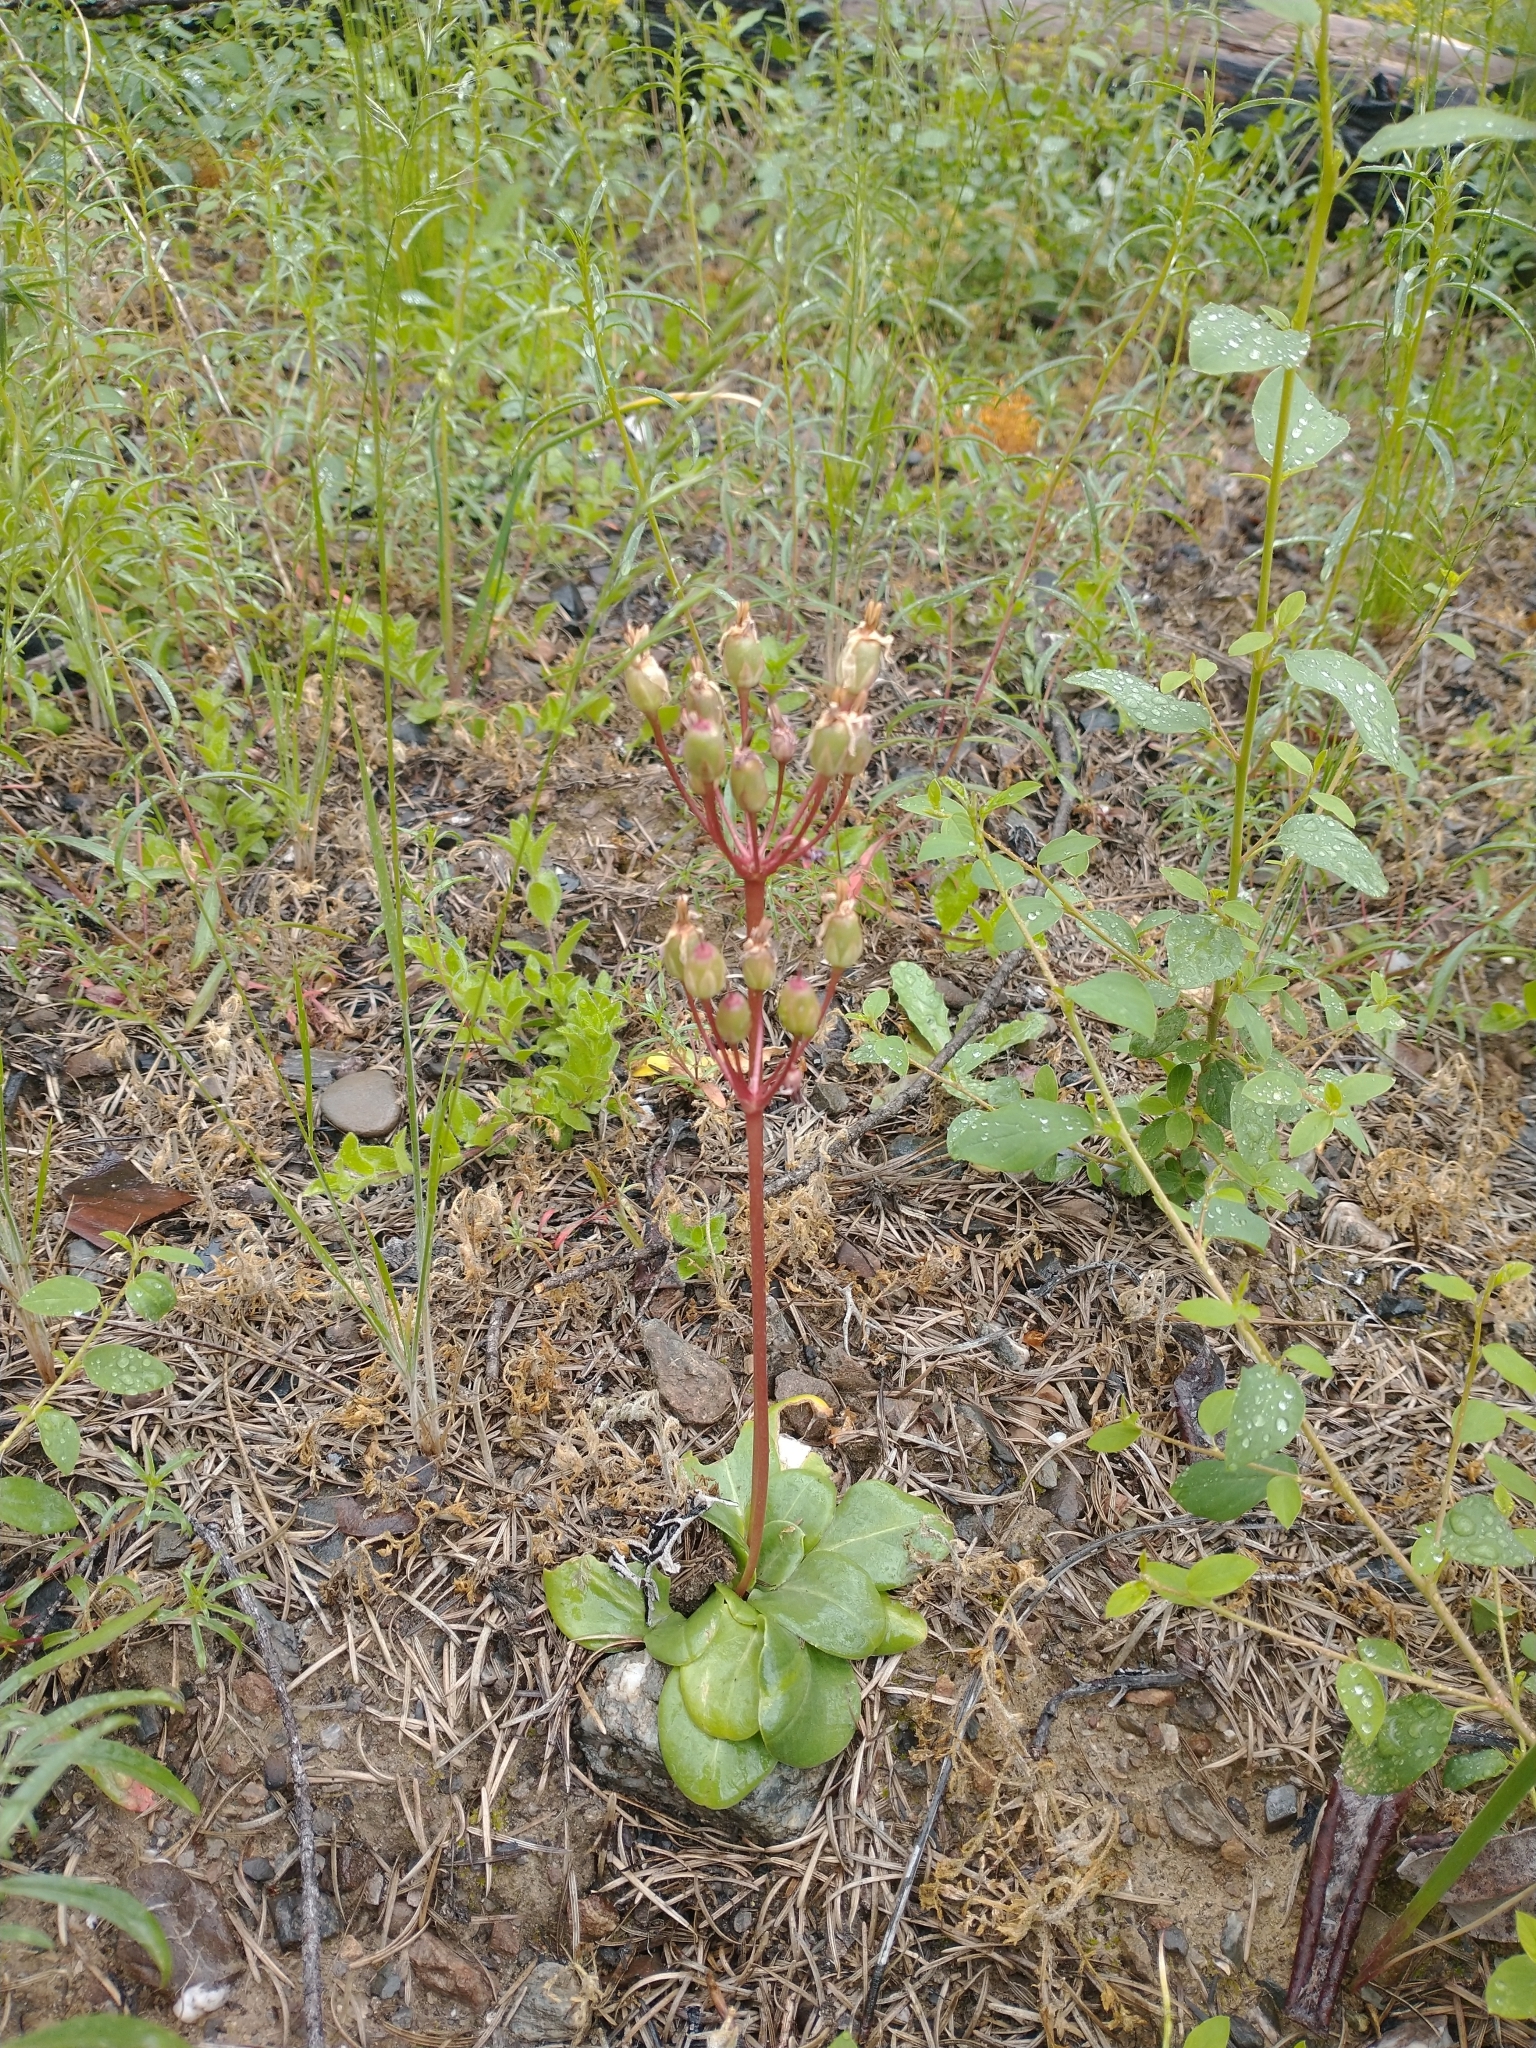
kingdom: Plantae
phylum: Tracheophyta
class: Magnoliopsida
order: Ericales
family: Primulaceae
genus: Dodecatheon
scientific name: Dodecatheon hendersonii
